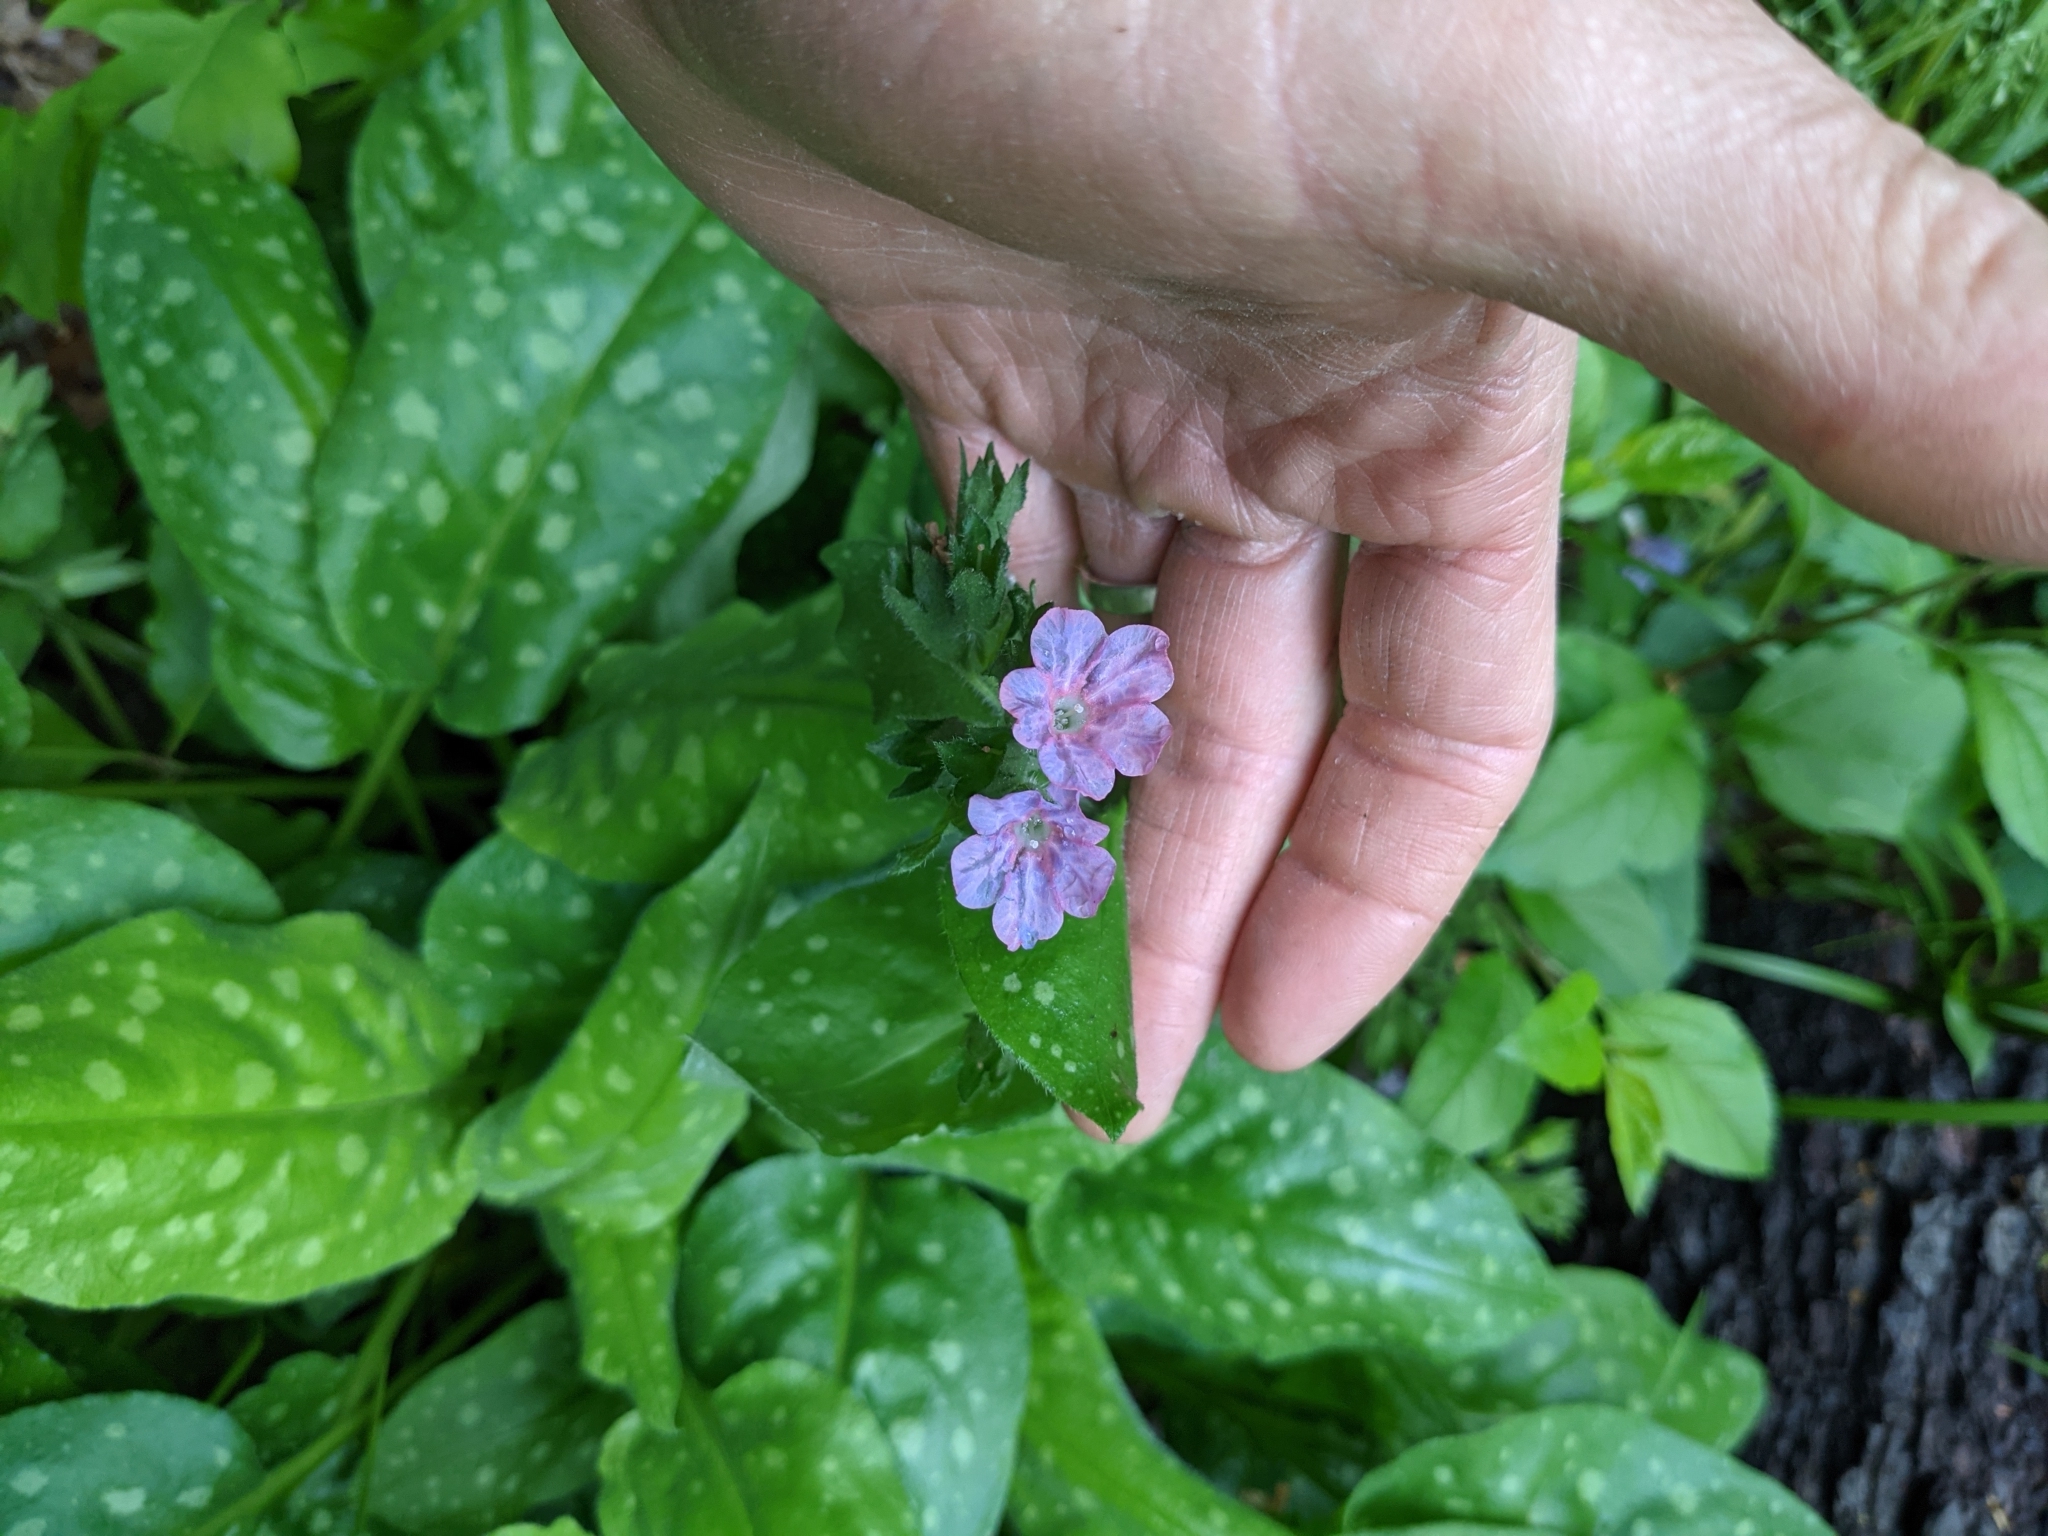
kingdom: Plantae
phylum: Tracheophyta
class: Magnoliopsida
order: Boraginales
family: Boraginaceae
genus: Pulmonaria
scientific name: Pulmonaria officinalis
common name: Lungwort
